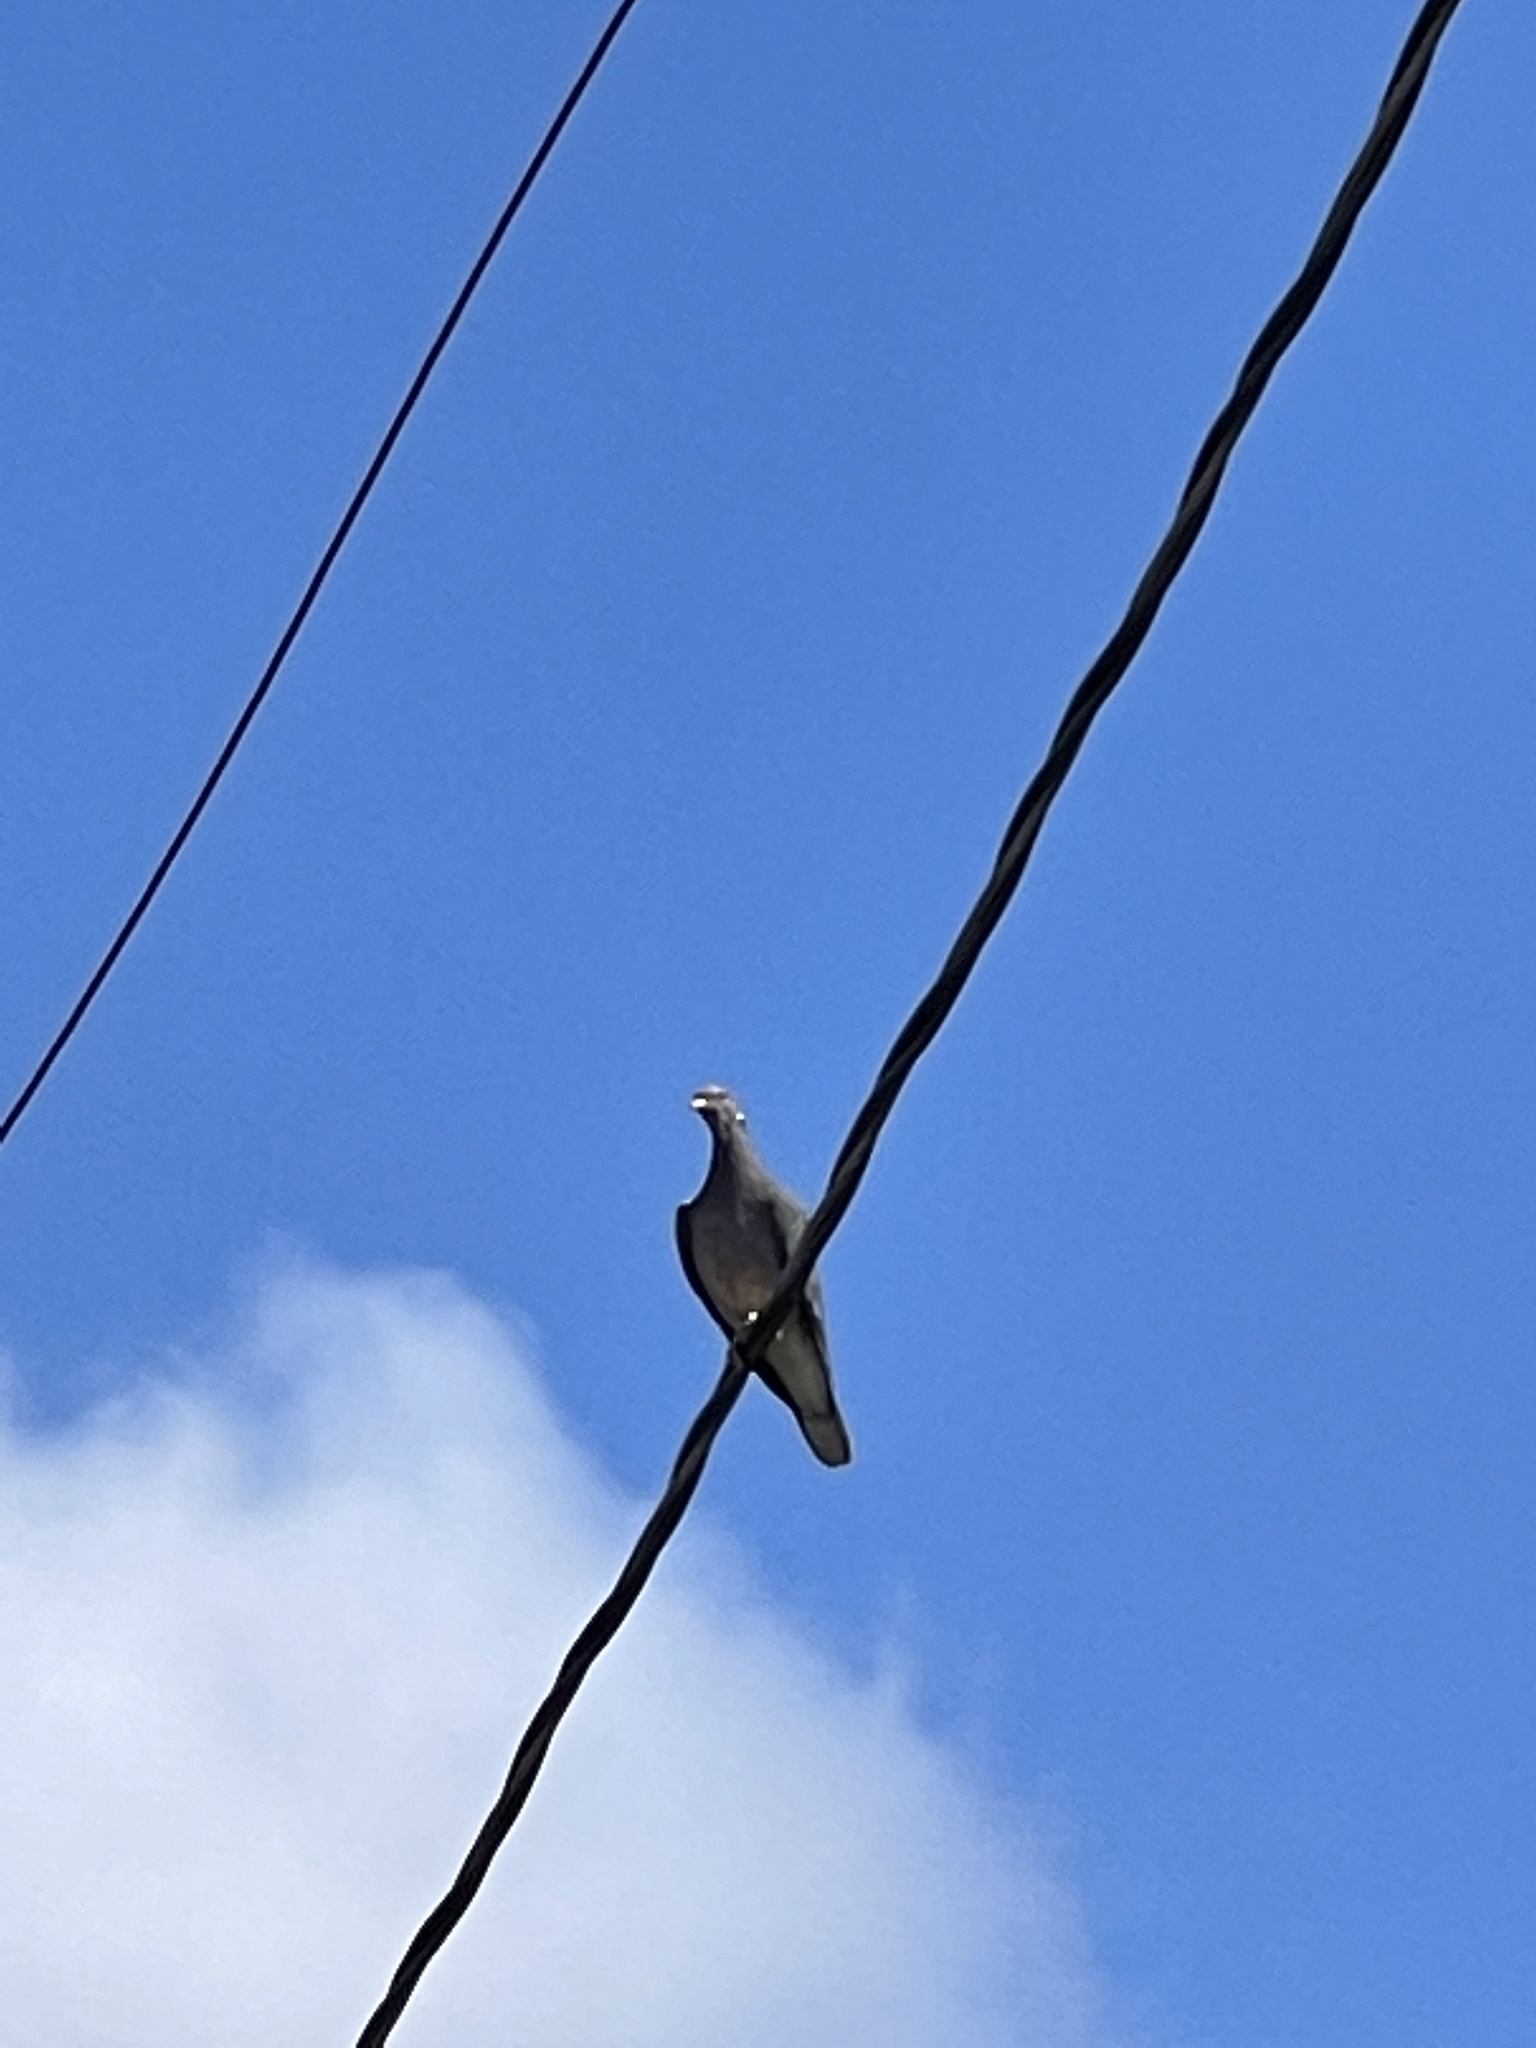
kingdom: Animalia
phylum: Chordata
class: Aves
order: Columbiformes
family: Columbidae
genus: Patagioenas
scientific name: Patagioenas fasciata
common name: Band-tailed pigeon
